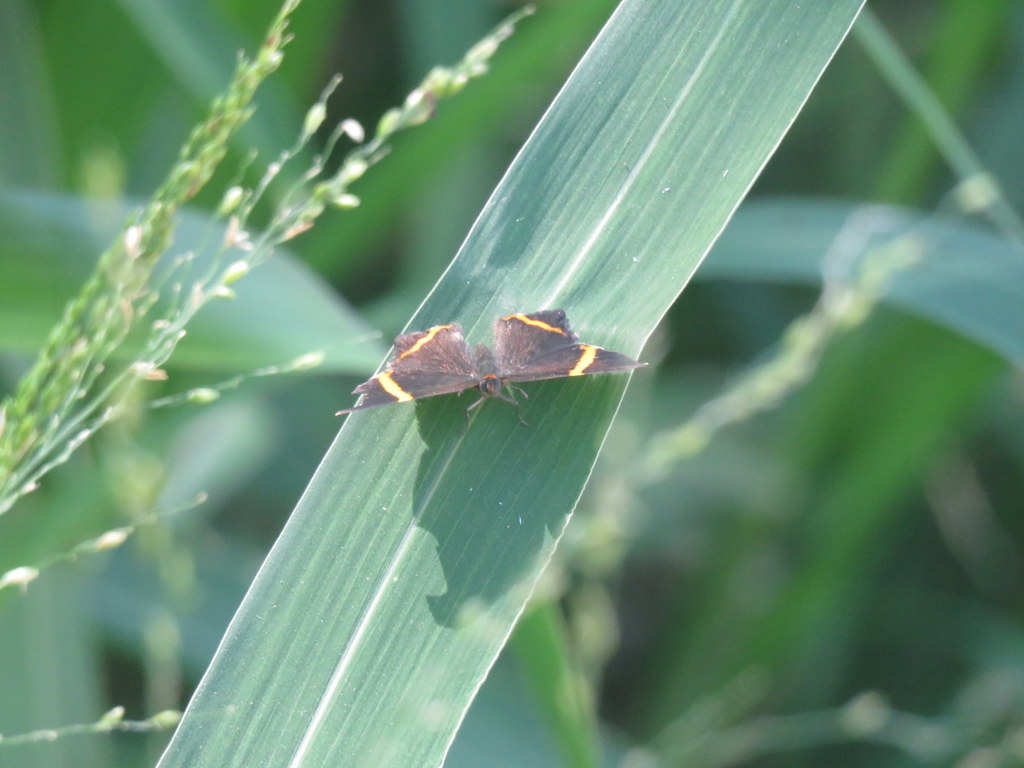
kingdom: Animalia
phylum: Arthropoda
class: Insecta
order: Lepidoptera
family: Riodinidae
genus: Riodina
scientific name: Riodina lysippoides
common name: Little dancer metalmark
